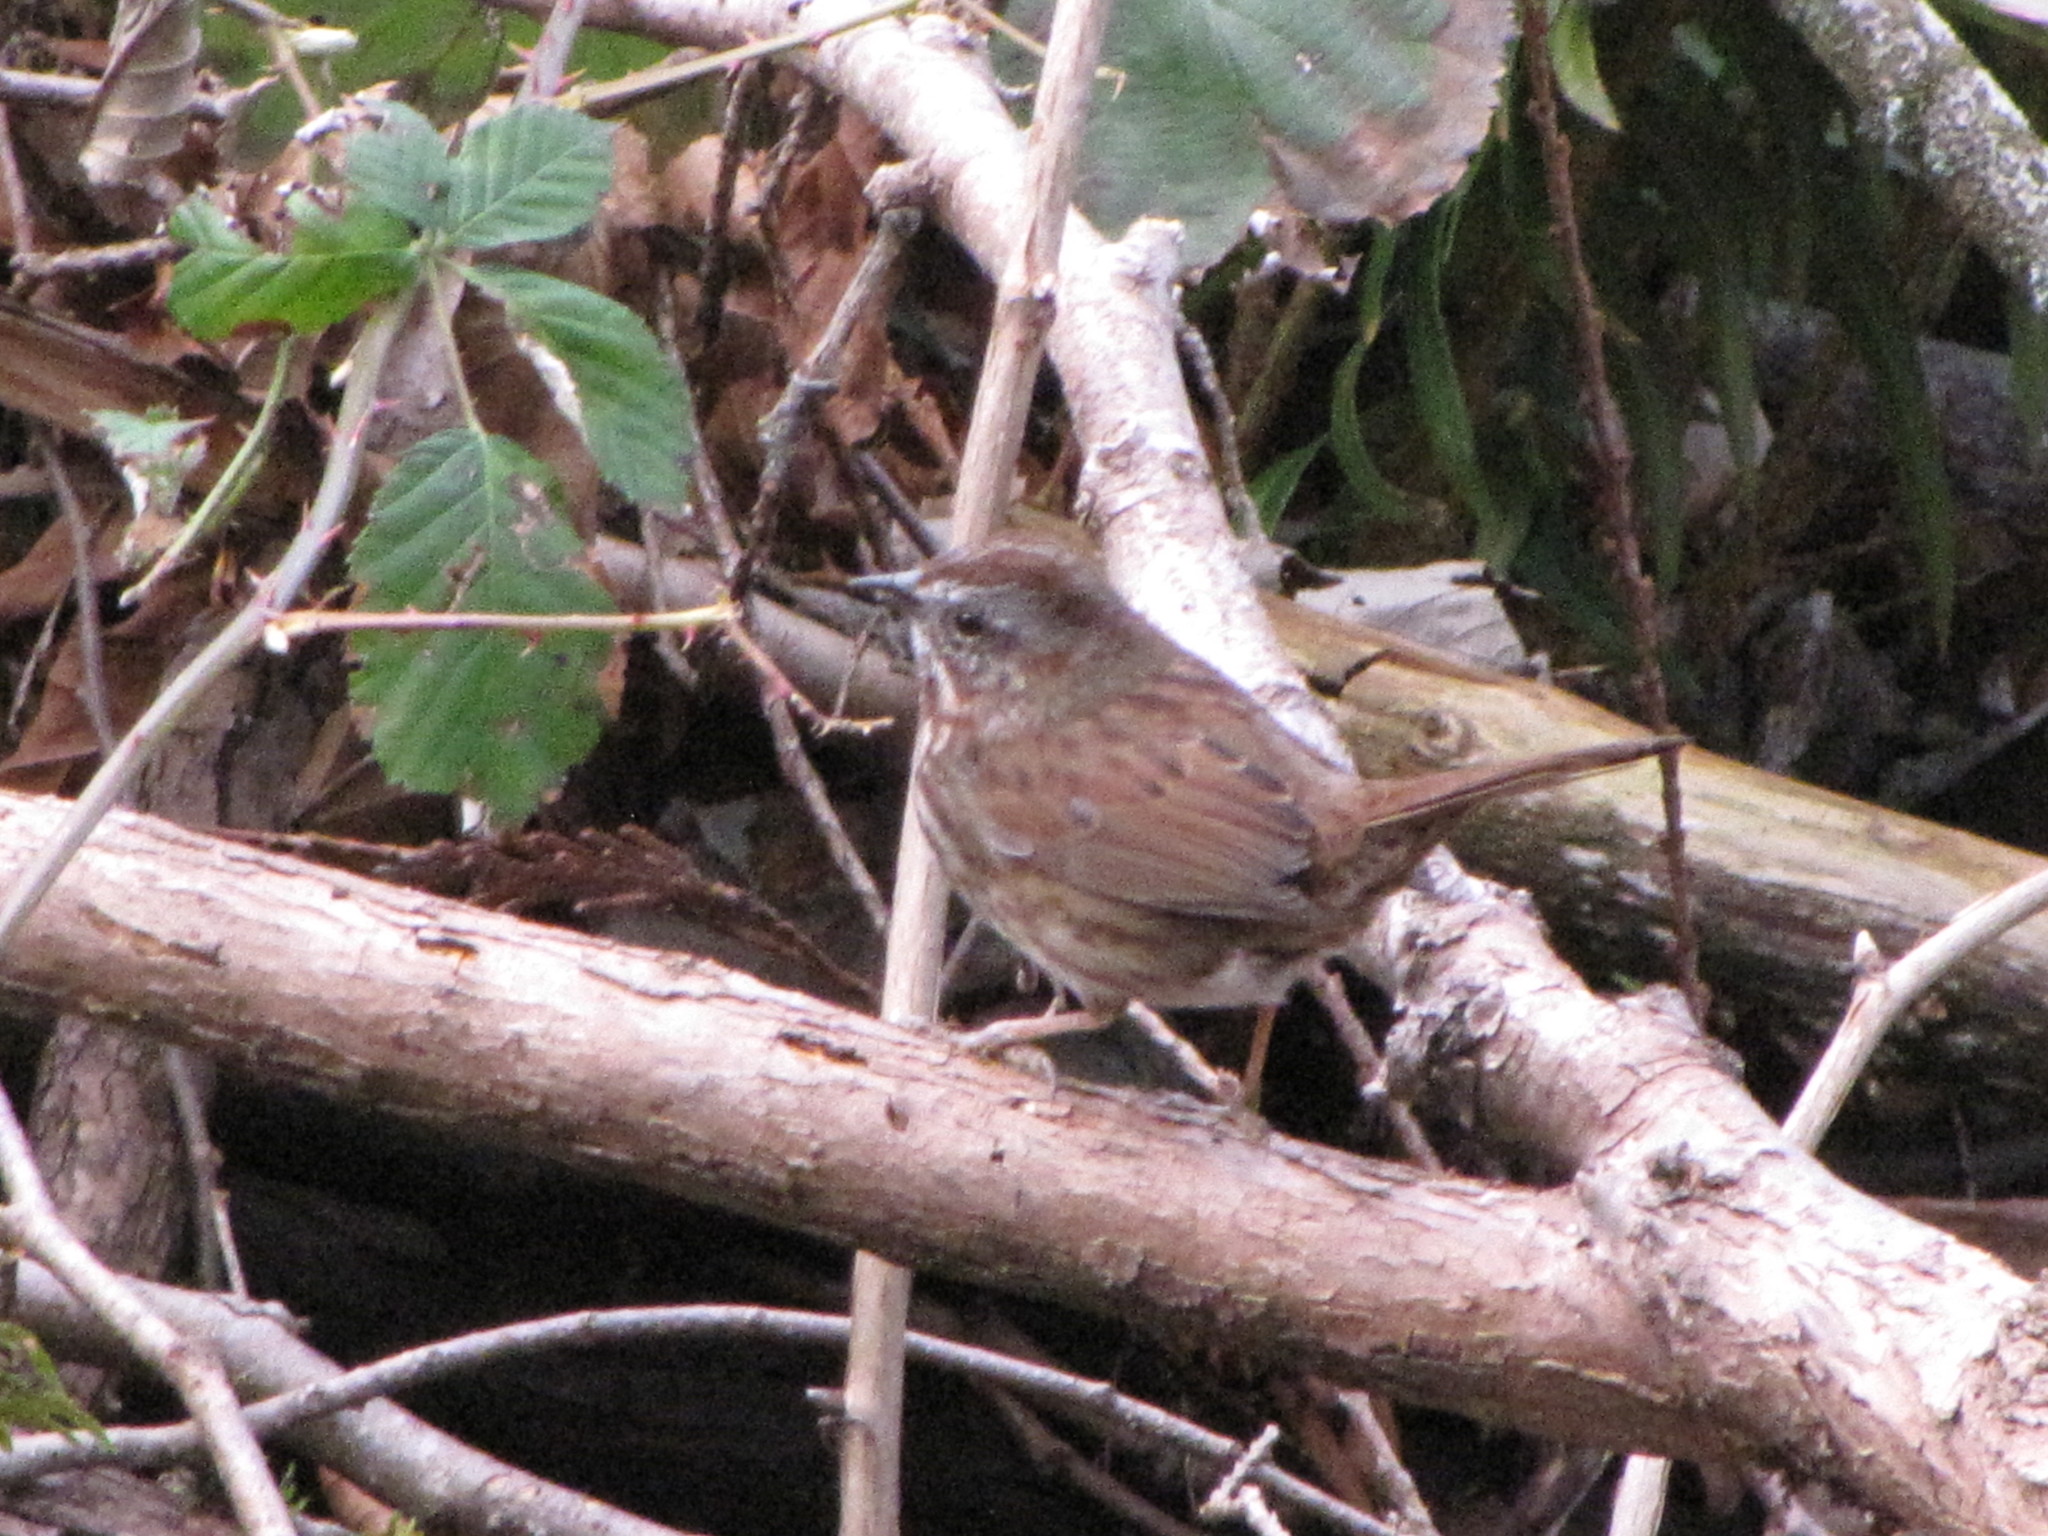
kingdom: Animalia
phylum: Chordata
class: Aves
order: Passeriformes
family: Passerellidae
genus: Melospiza
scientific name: Melospiza melodia
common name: Song sparrow
